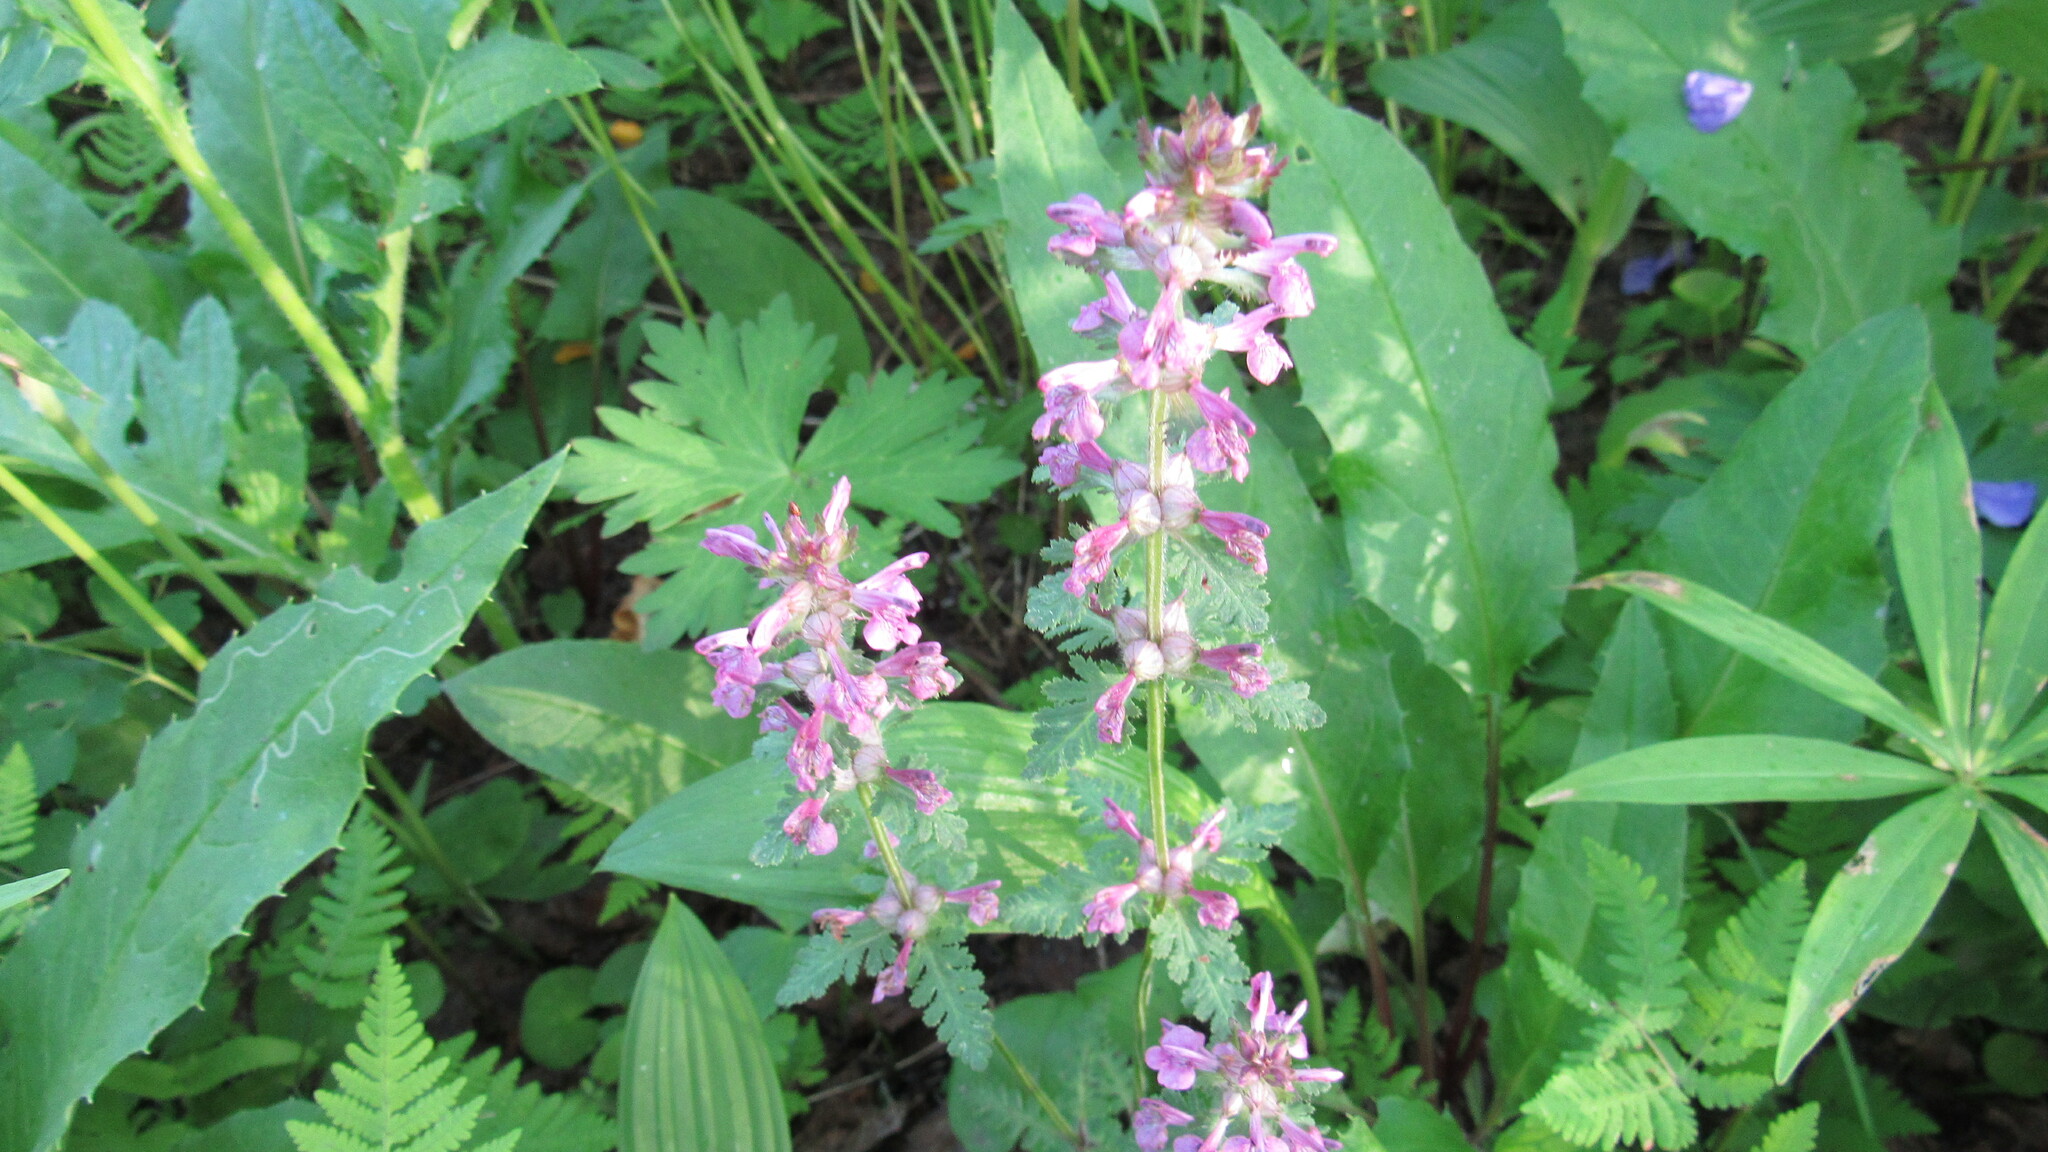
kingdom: Plantae
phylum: Tracheophyta
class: Magnoliopsida
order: Lamiales
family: Orobanchaceae
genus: Pedicularis
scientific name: Pedicularis verticillata
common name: Whorled lousewort
